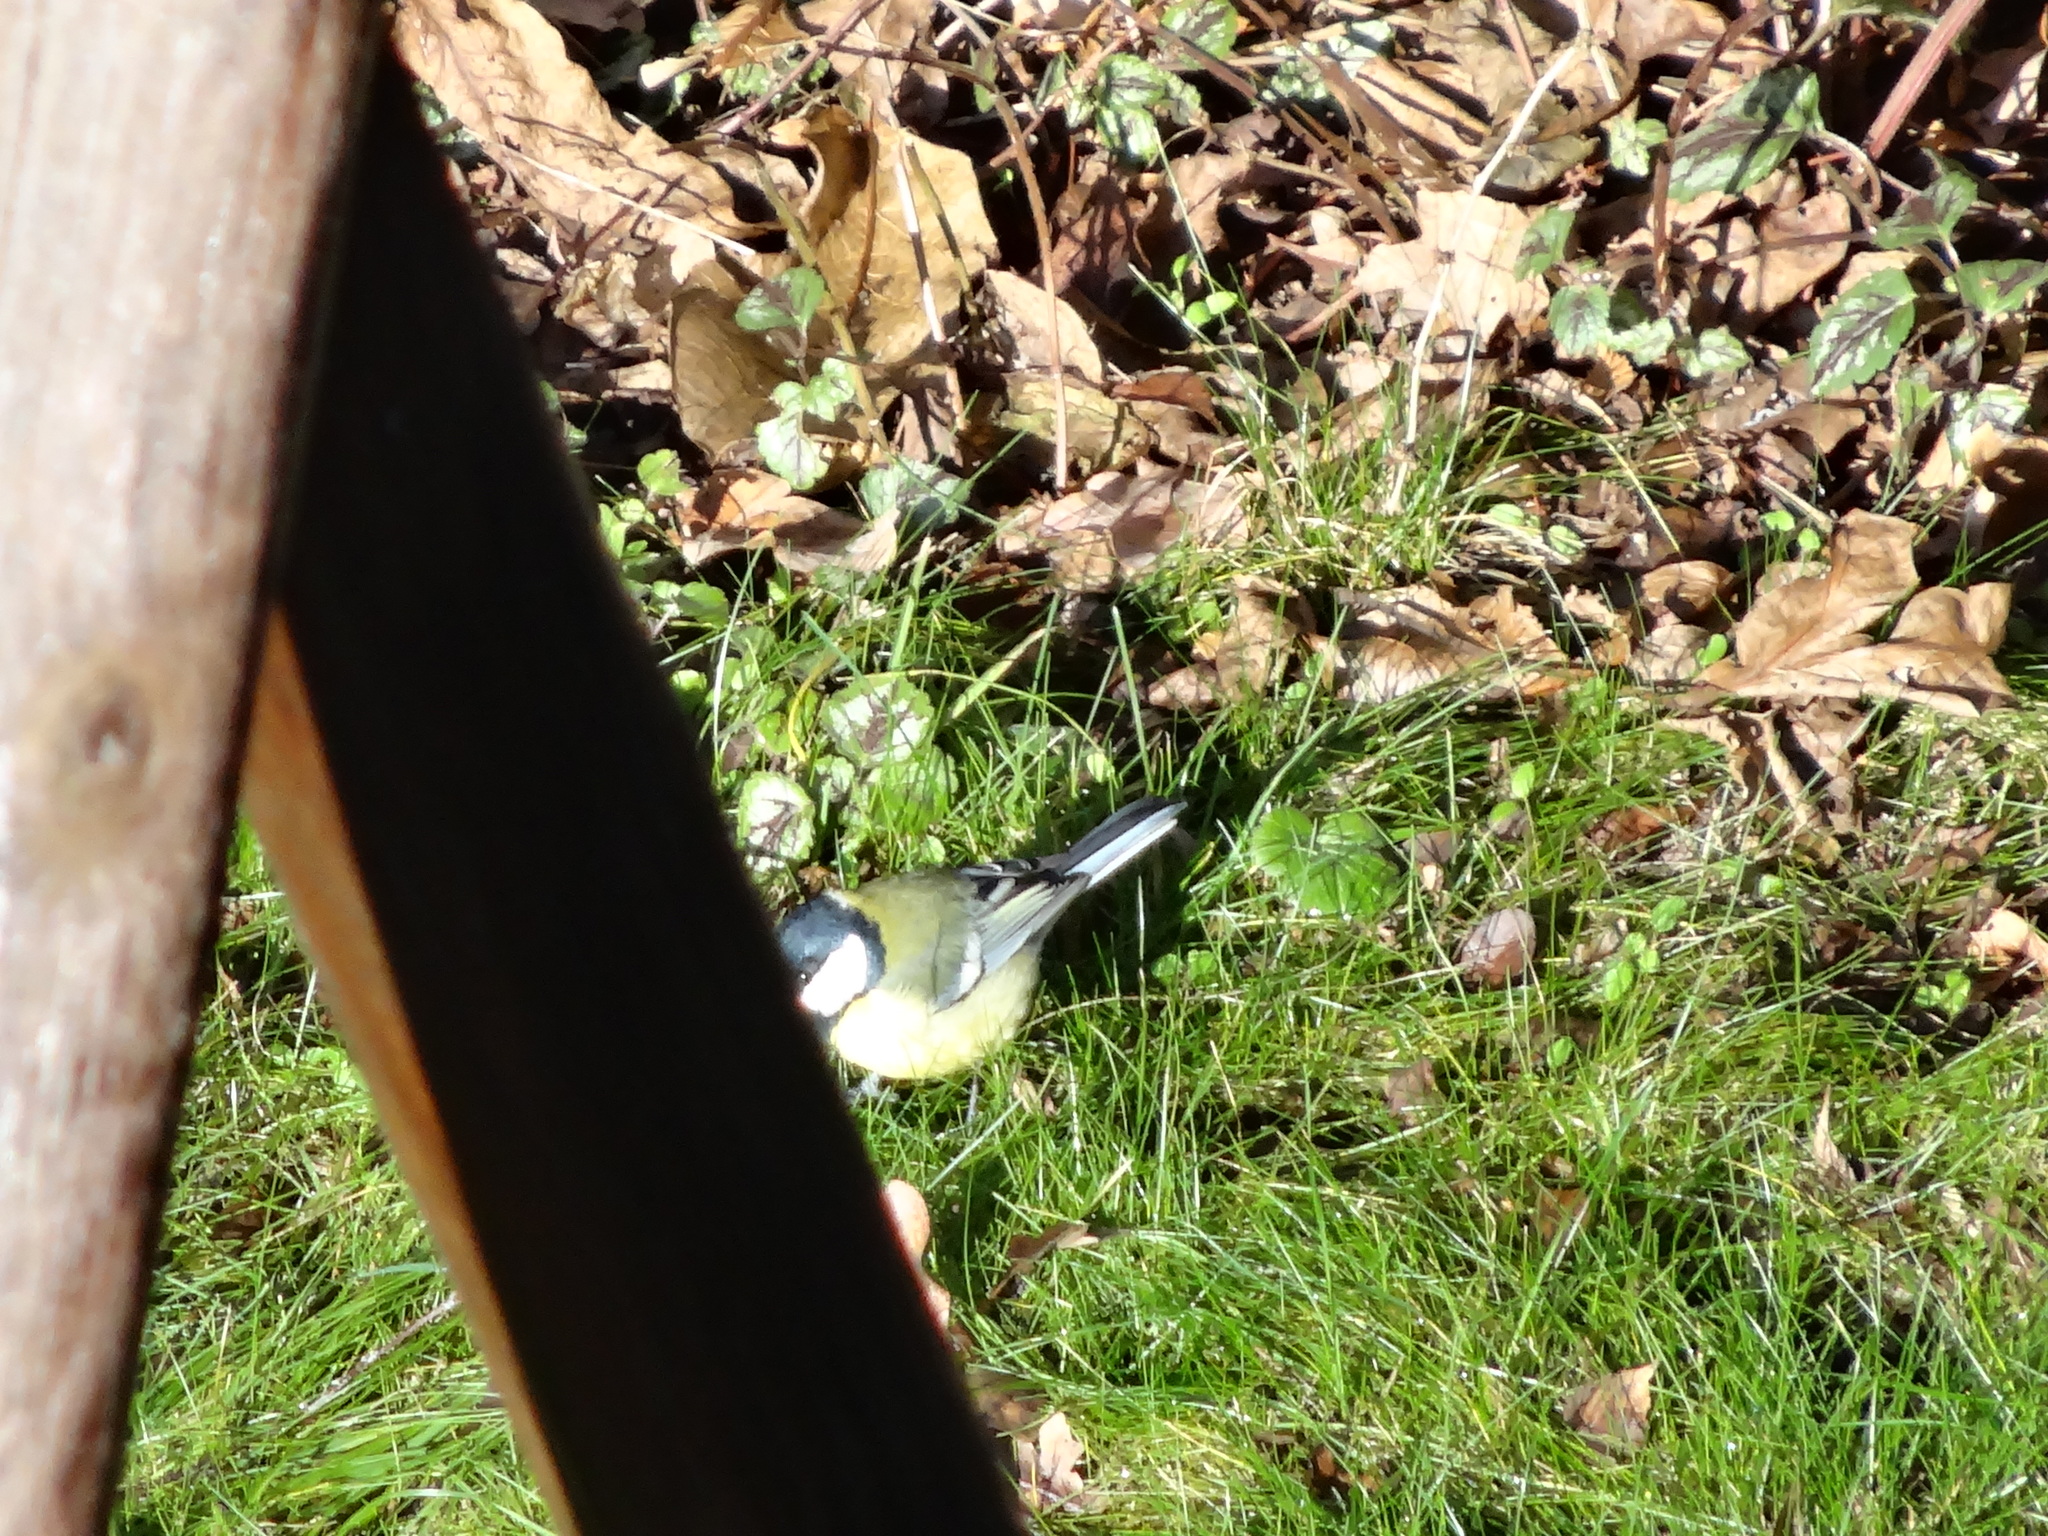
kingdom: Animalia
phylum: Chordata
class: Aves
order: Passeriformes
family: Paridae
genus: Parus
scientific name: Parus major
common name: Great tit
